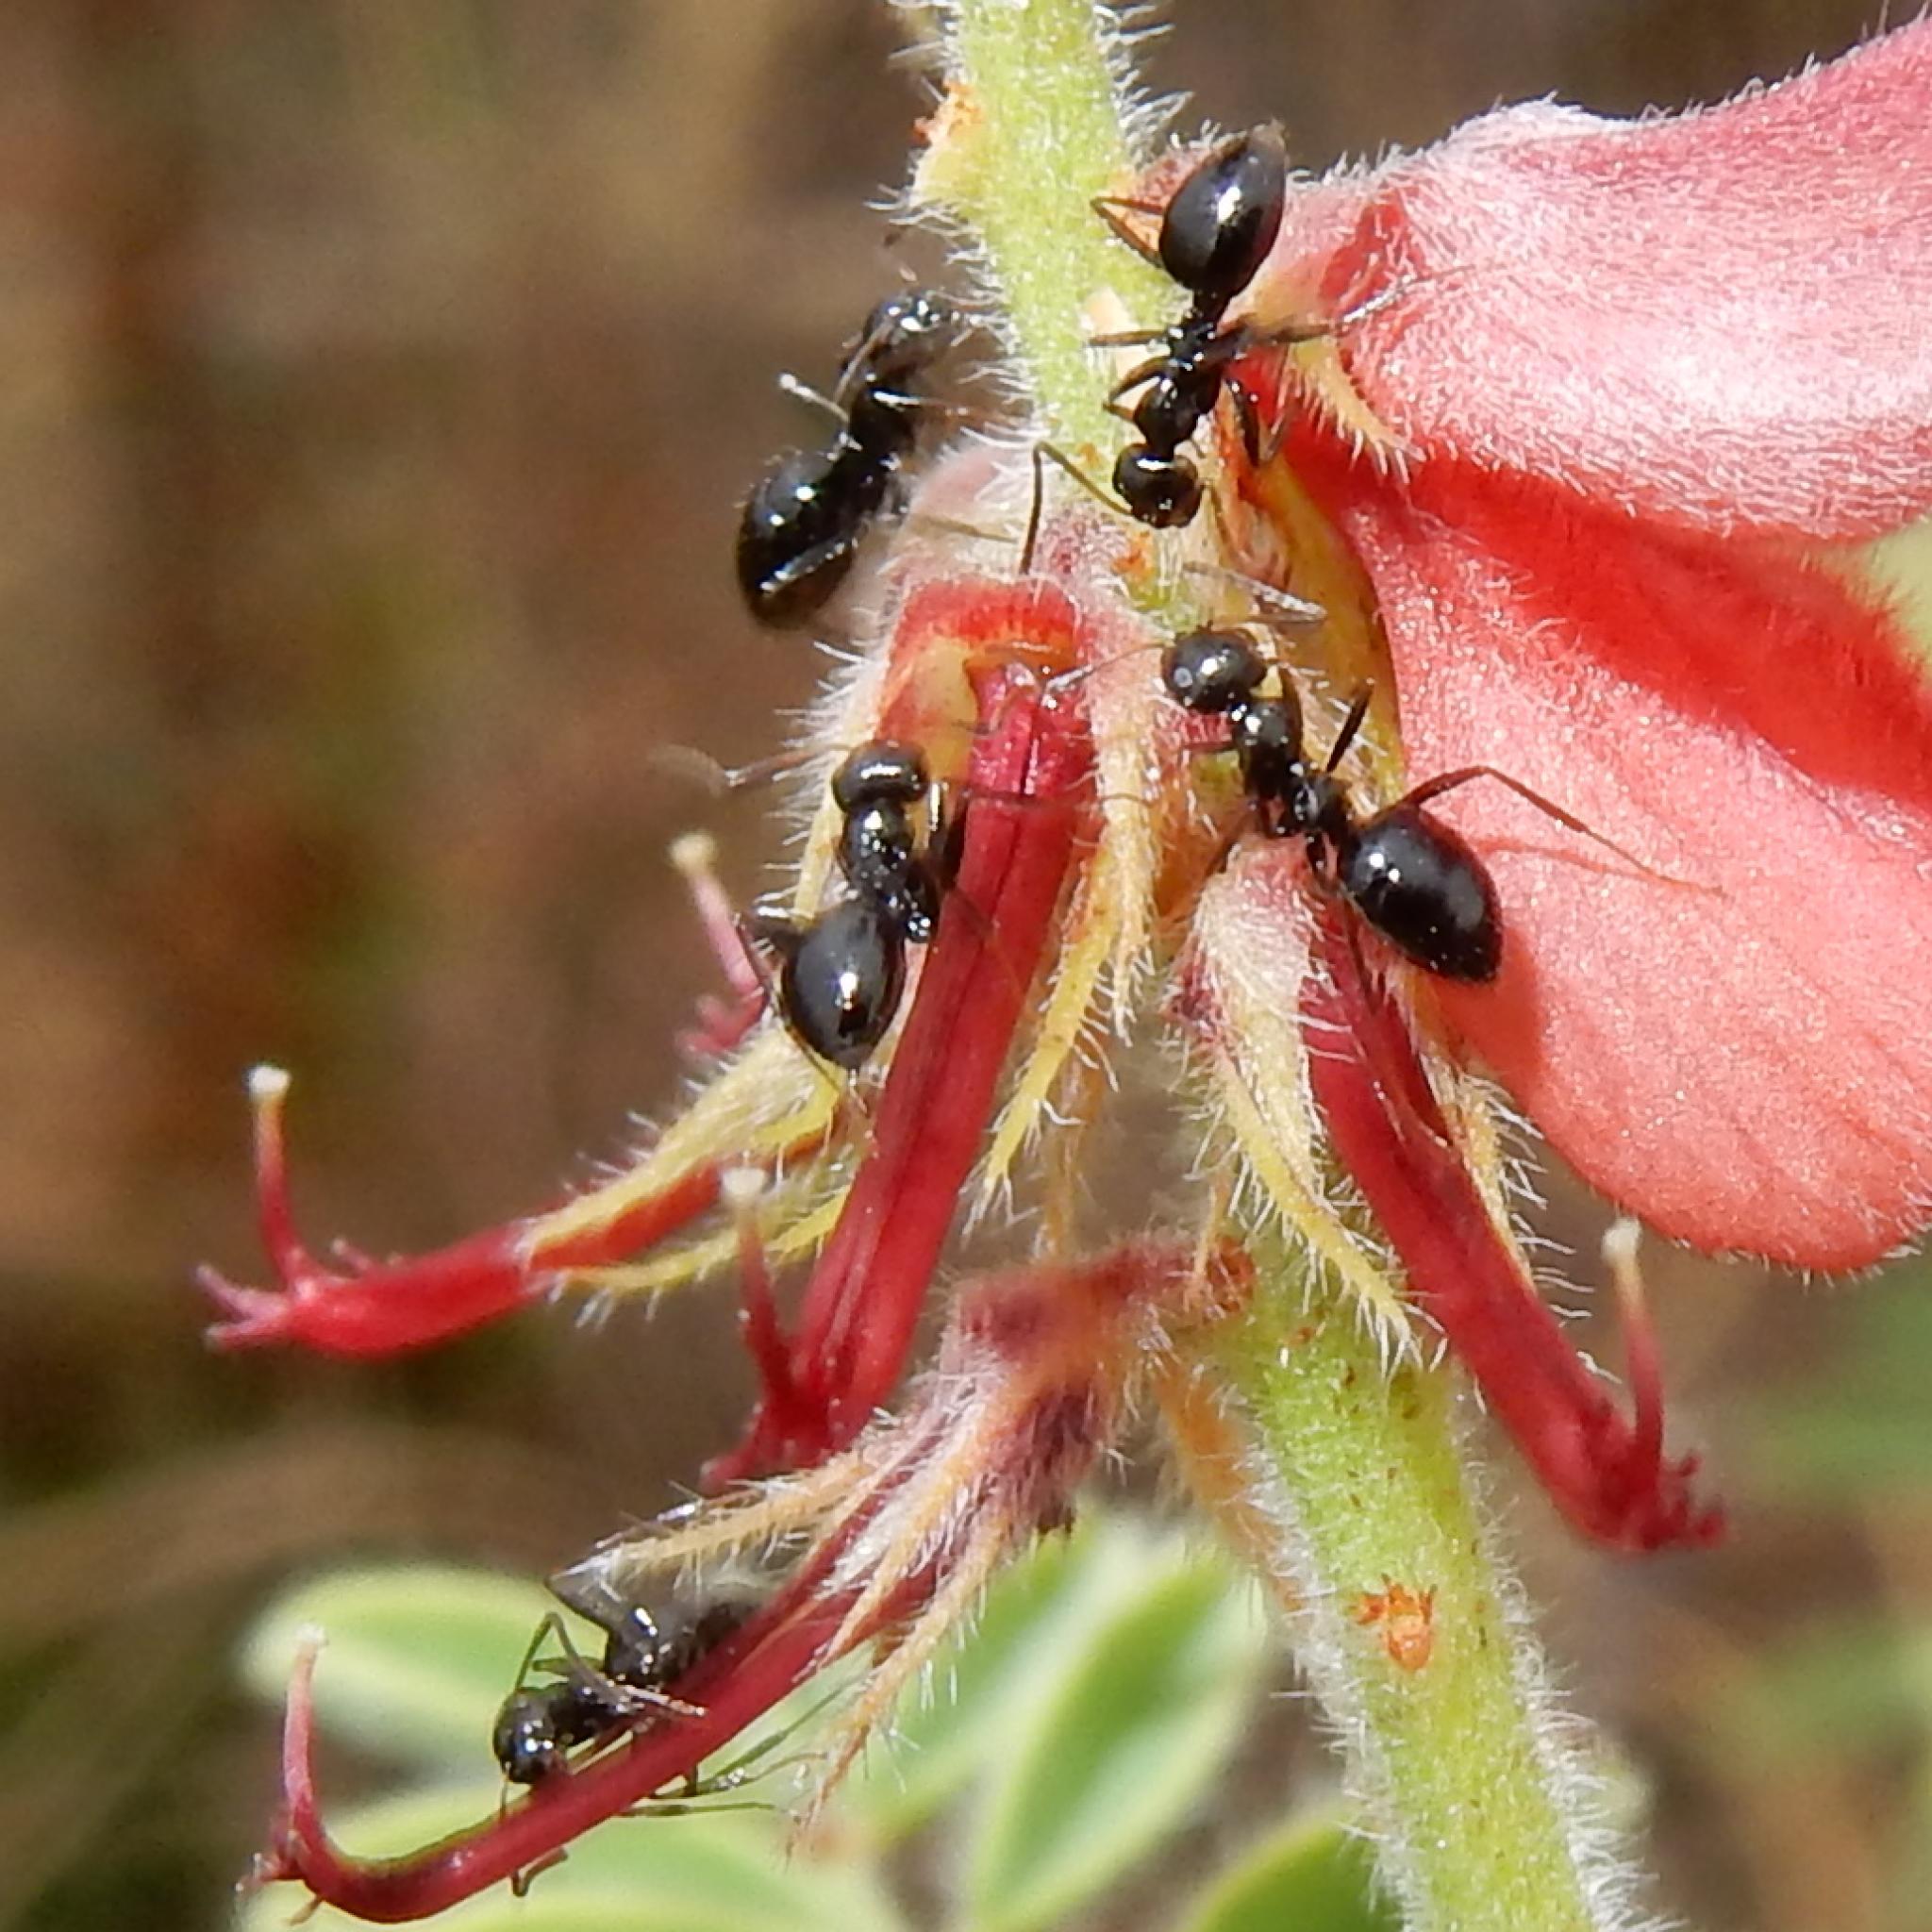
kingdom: Animalia
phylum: Arthropoda
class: Insecta
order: Hymenoptera
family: Formicidae
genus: Lepisiota
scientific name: Lepisiota capensis
